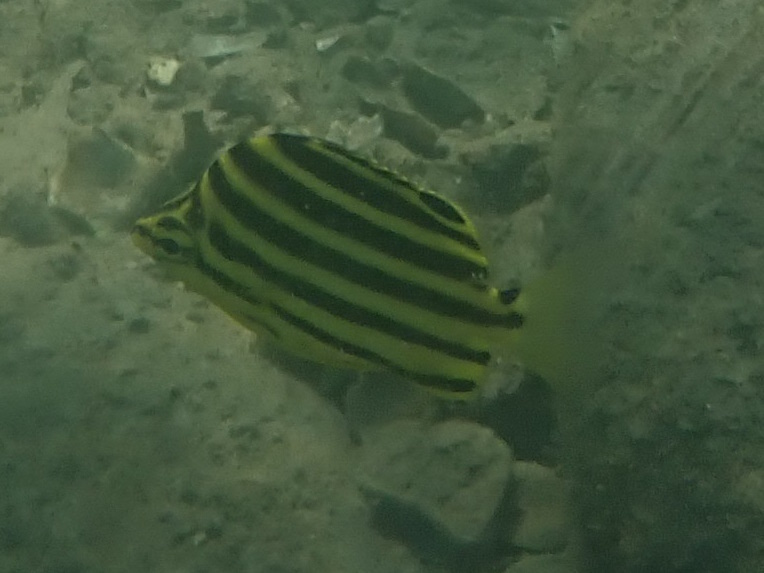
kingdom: Animalia
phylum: Chordata
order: Perciformes
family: Kyphosidae
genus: Microcanthus
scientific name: Microcanthus joyceae
